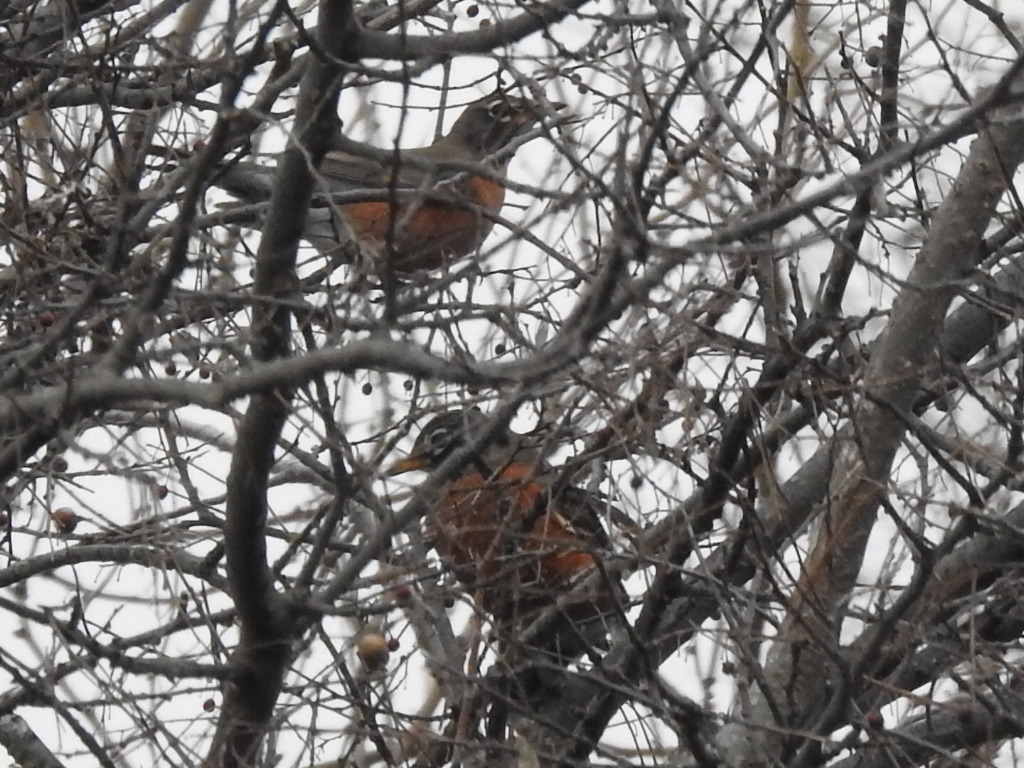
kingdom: Animalia
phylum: Chordata
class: Aves
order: Passeriformes
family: Turdidae
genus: Turdus
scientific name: Turdus migratorius
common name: American robin
